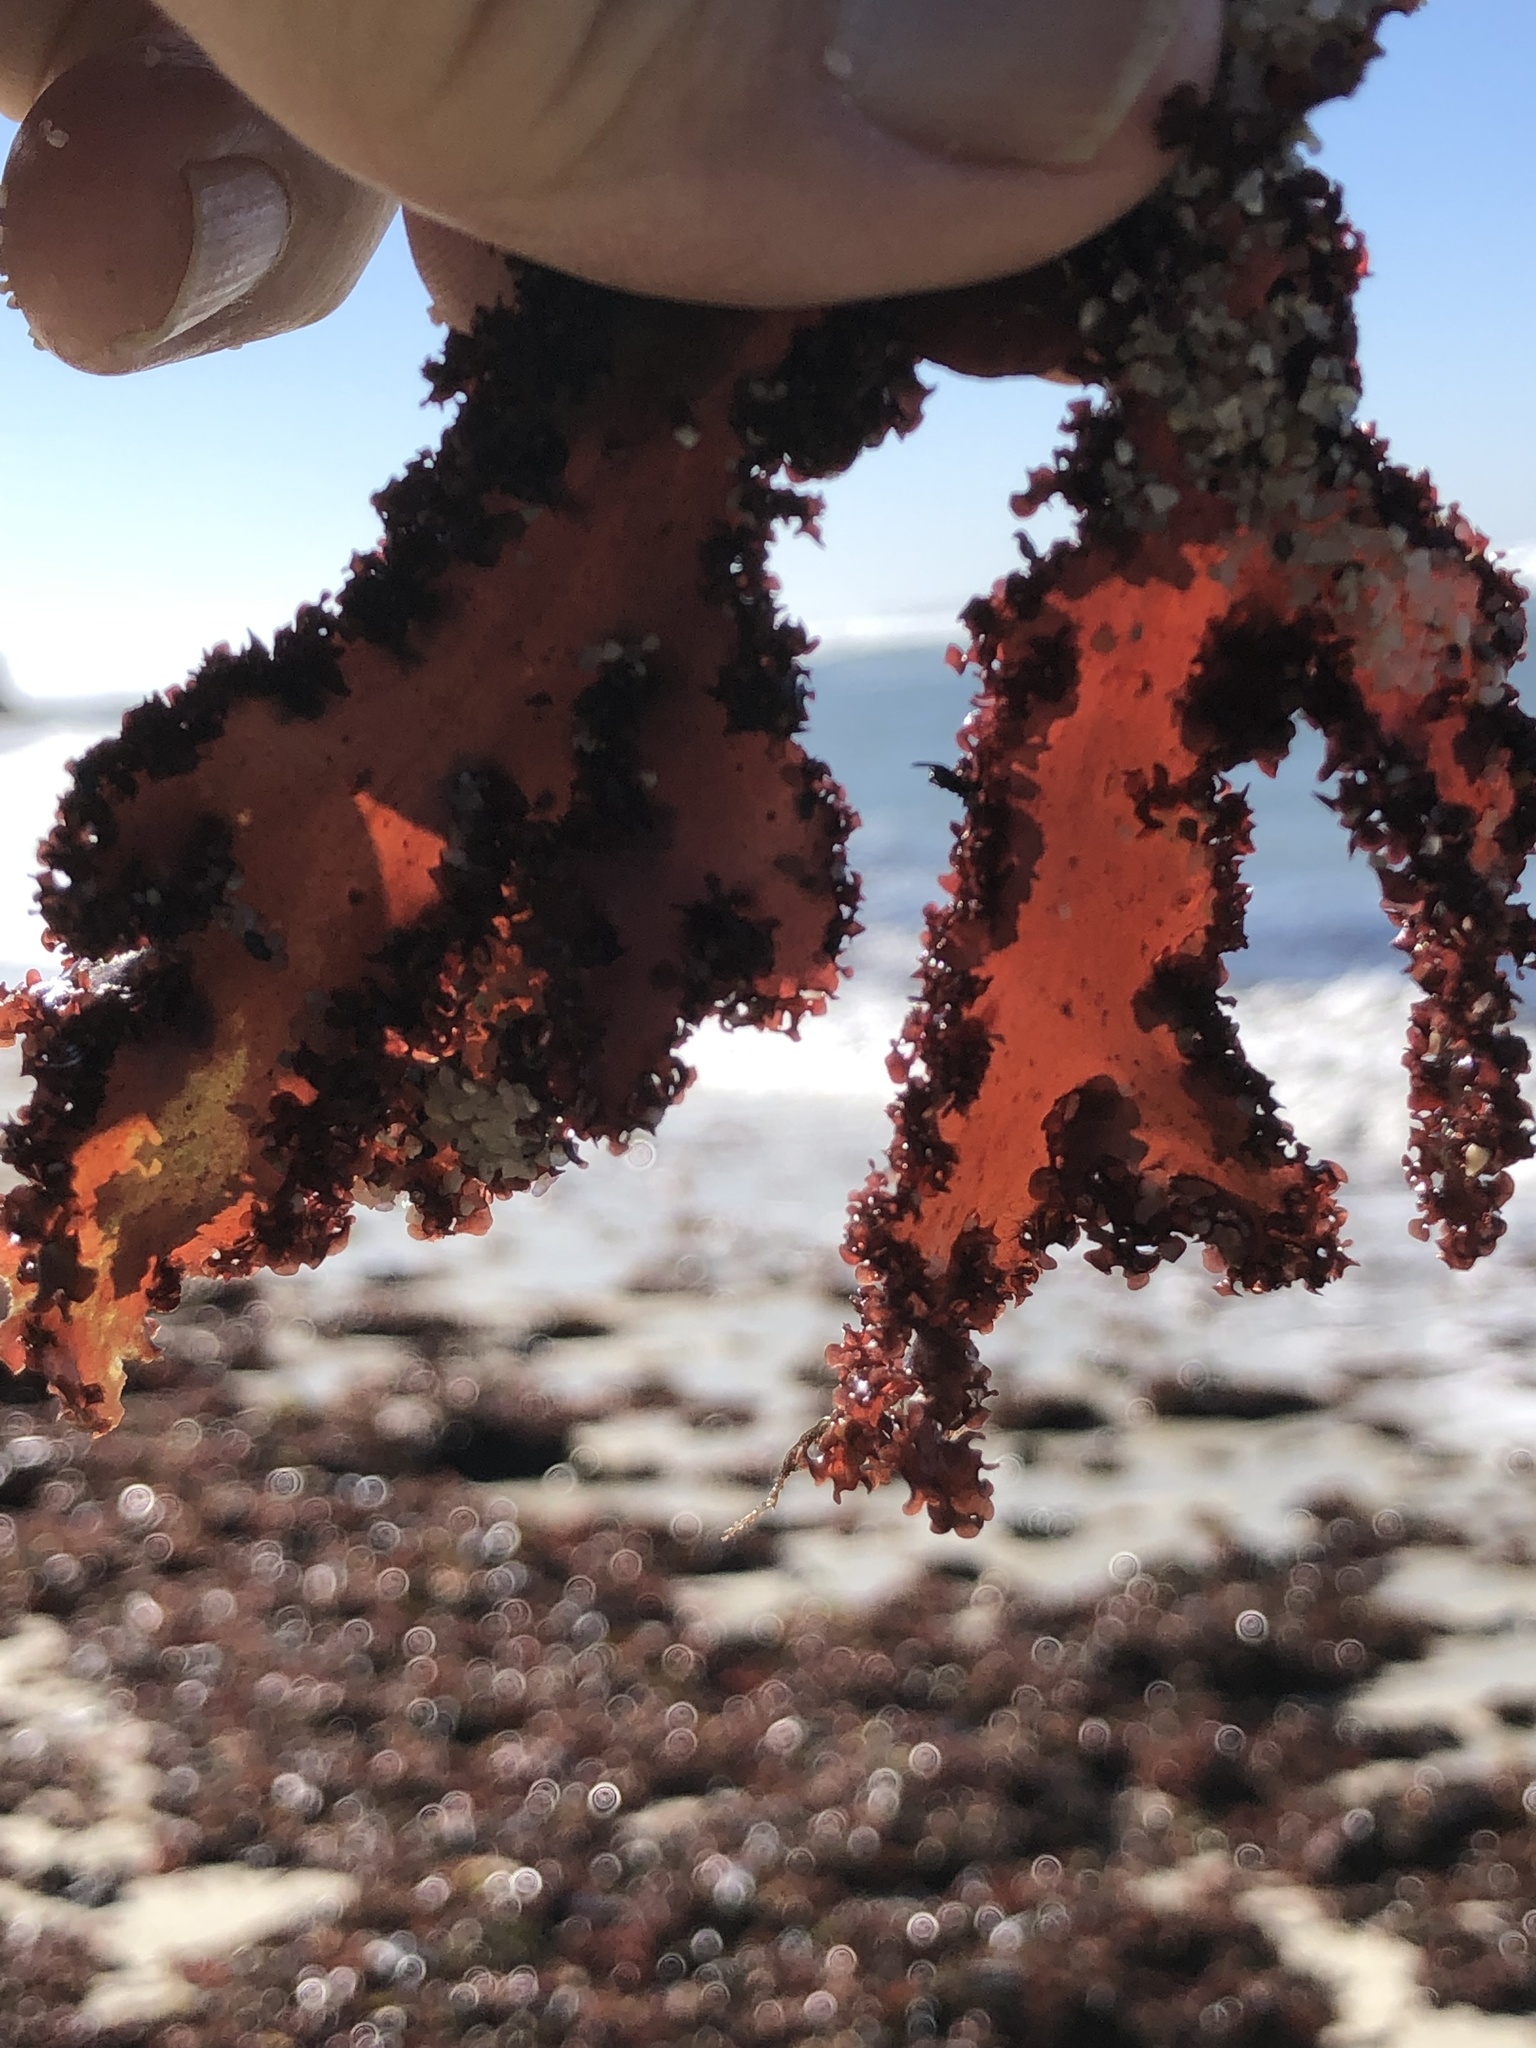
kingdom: Plantae
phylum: Rhodophyta
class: Florideophyceae
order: Ceramiales
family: Delesseriaceae
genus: Cryptopleura
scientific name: Cryptopleura ruprechtiana
